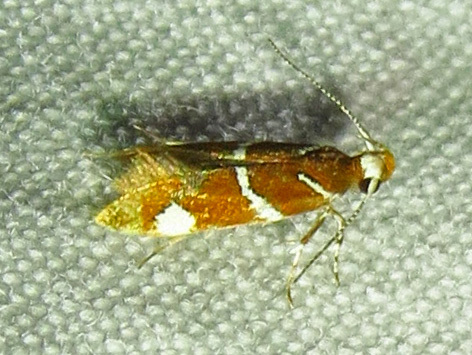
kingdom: Animalia
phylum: Arthropoda
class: Insecta
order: Lepidoptera
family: Oecophoridae
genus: Promalactis
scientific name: Promalactis suzukiella
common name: Moth
